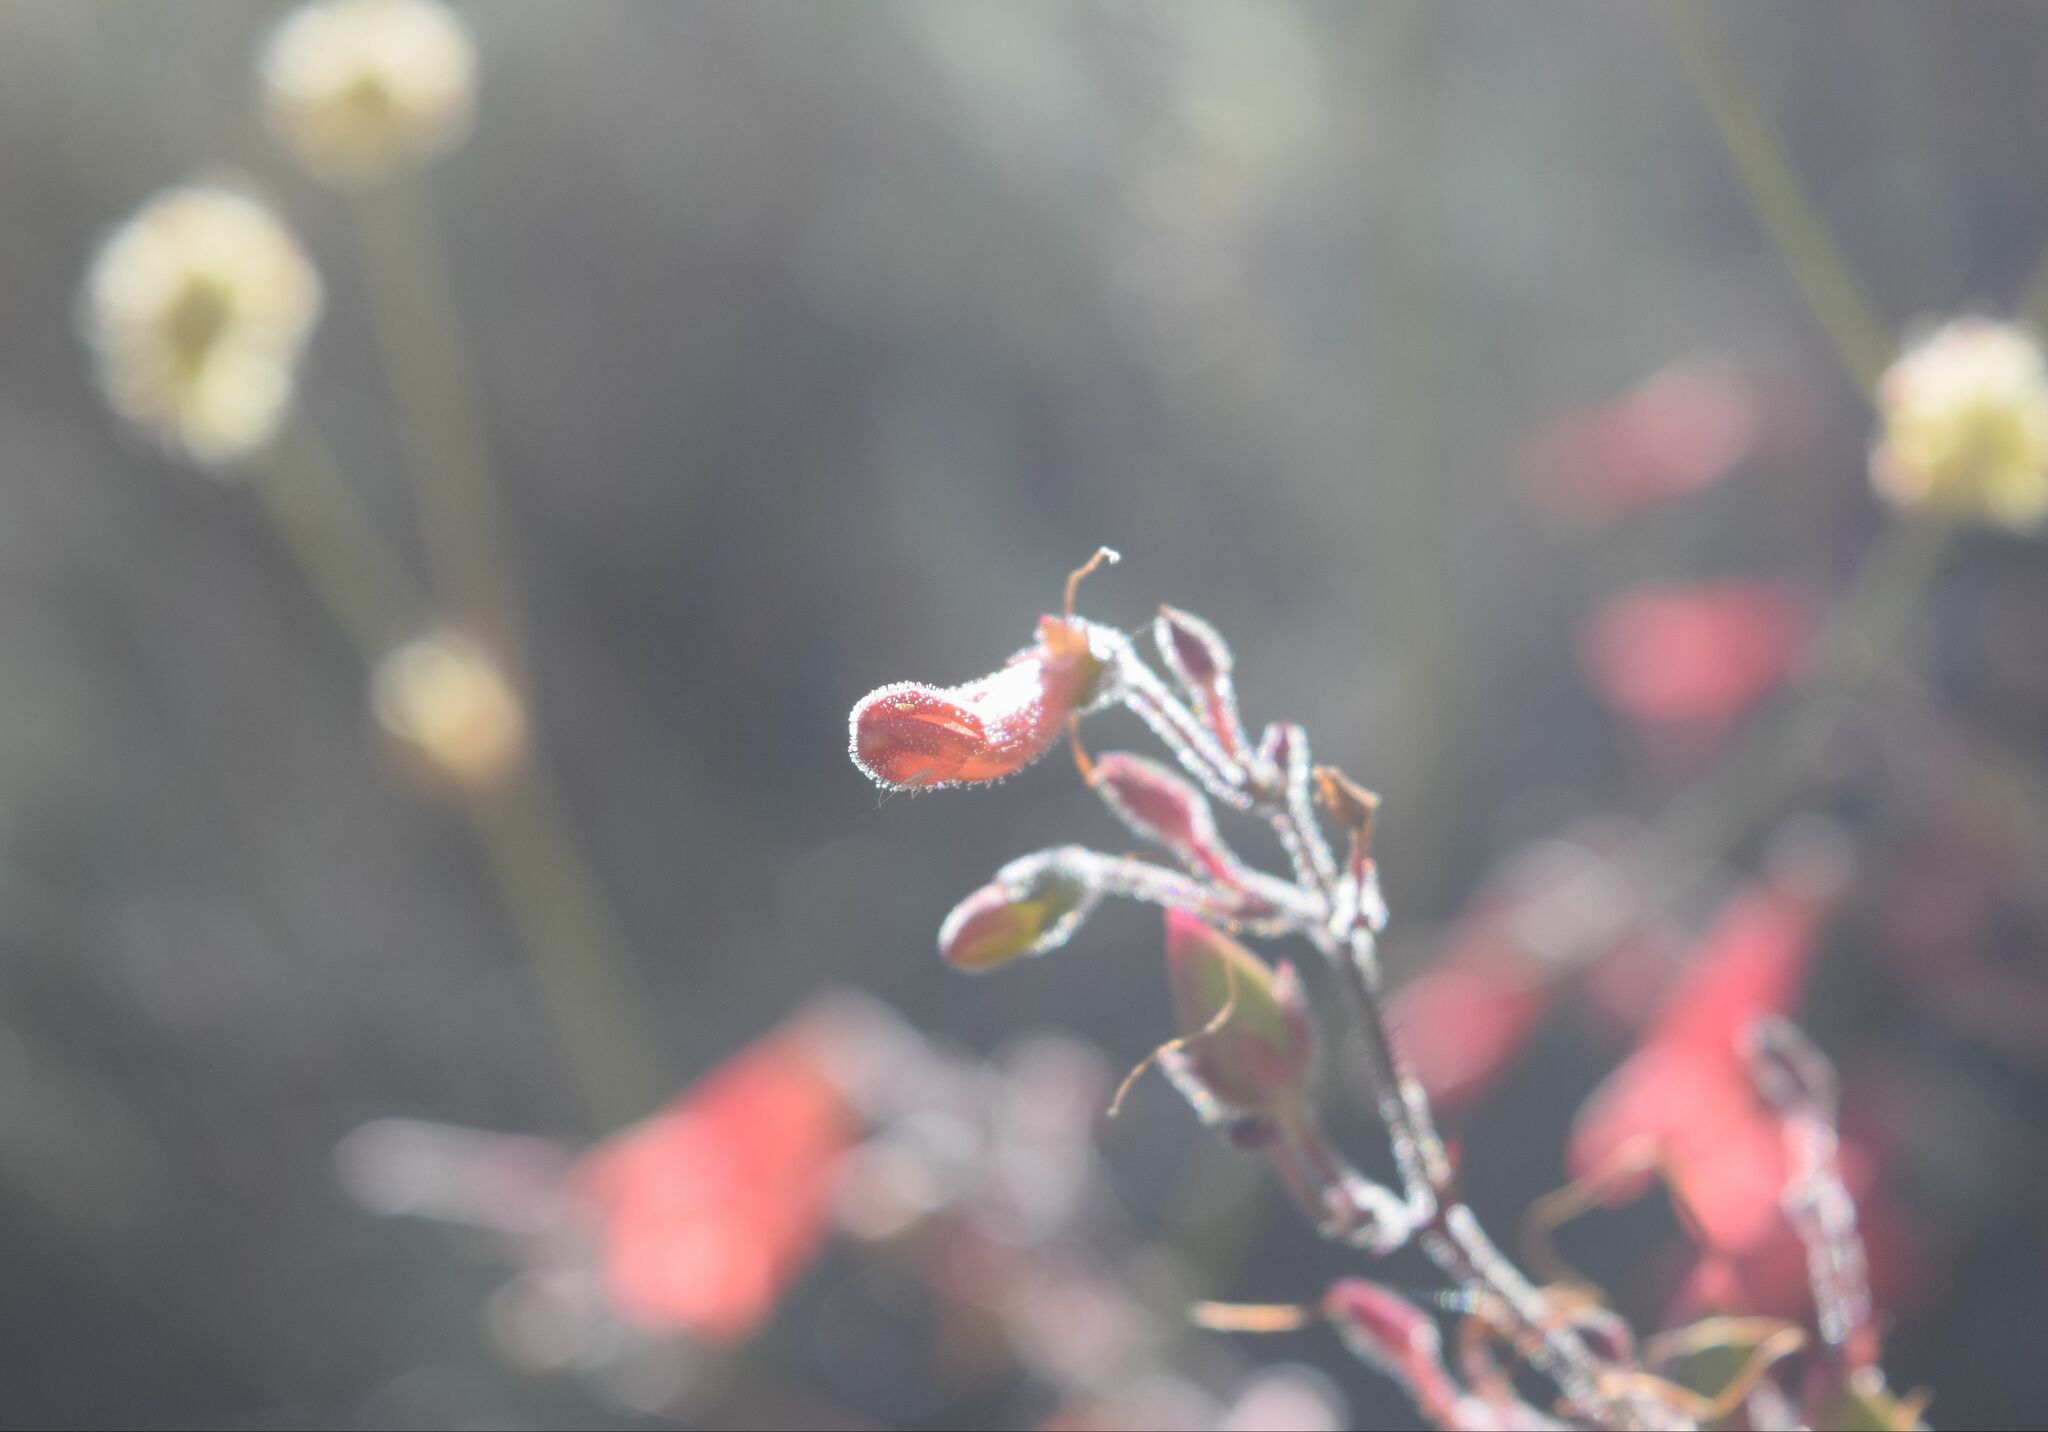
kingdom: Plantae
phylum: Tracheophyta
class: Magnoliopsida
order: Lamiales
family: Plantaginaceae
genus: Penstemon
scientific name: Penstemon rostriflorus
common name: Bridges's penstemon
